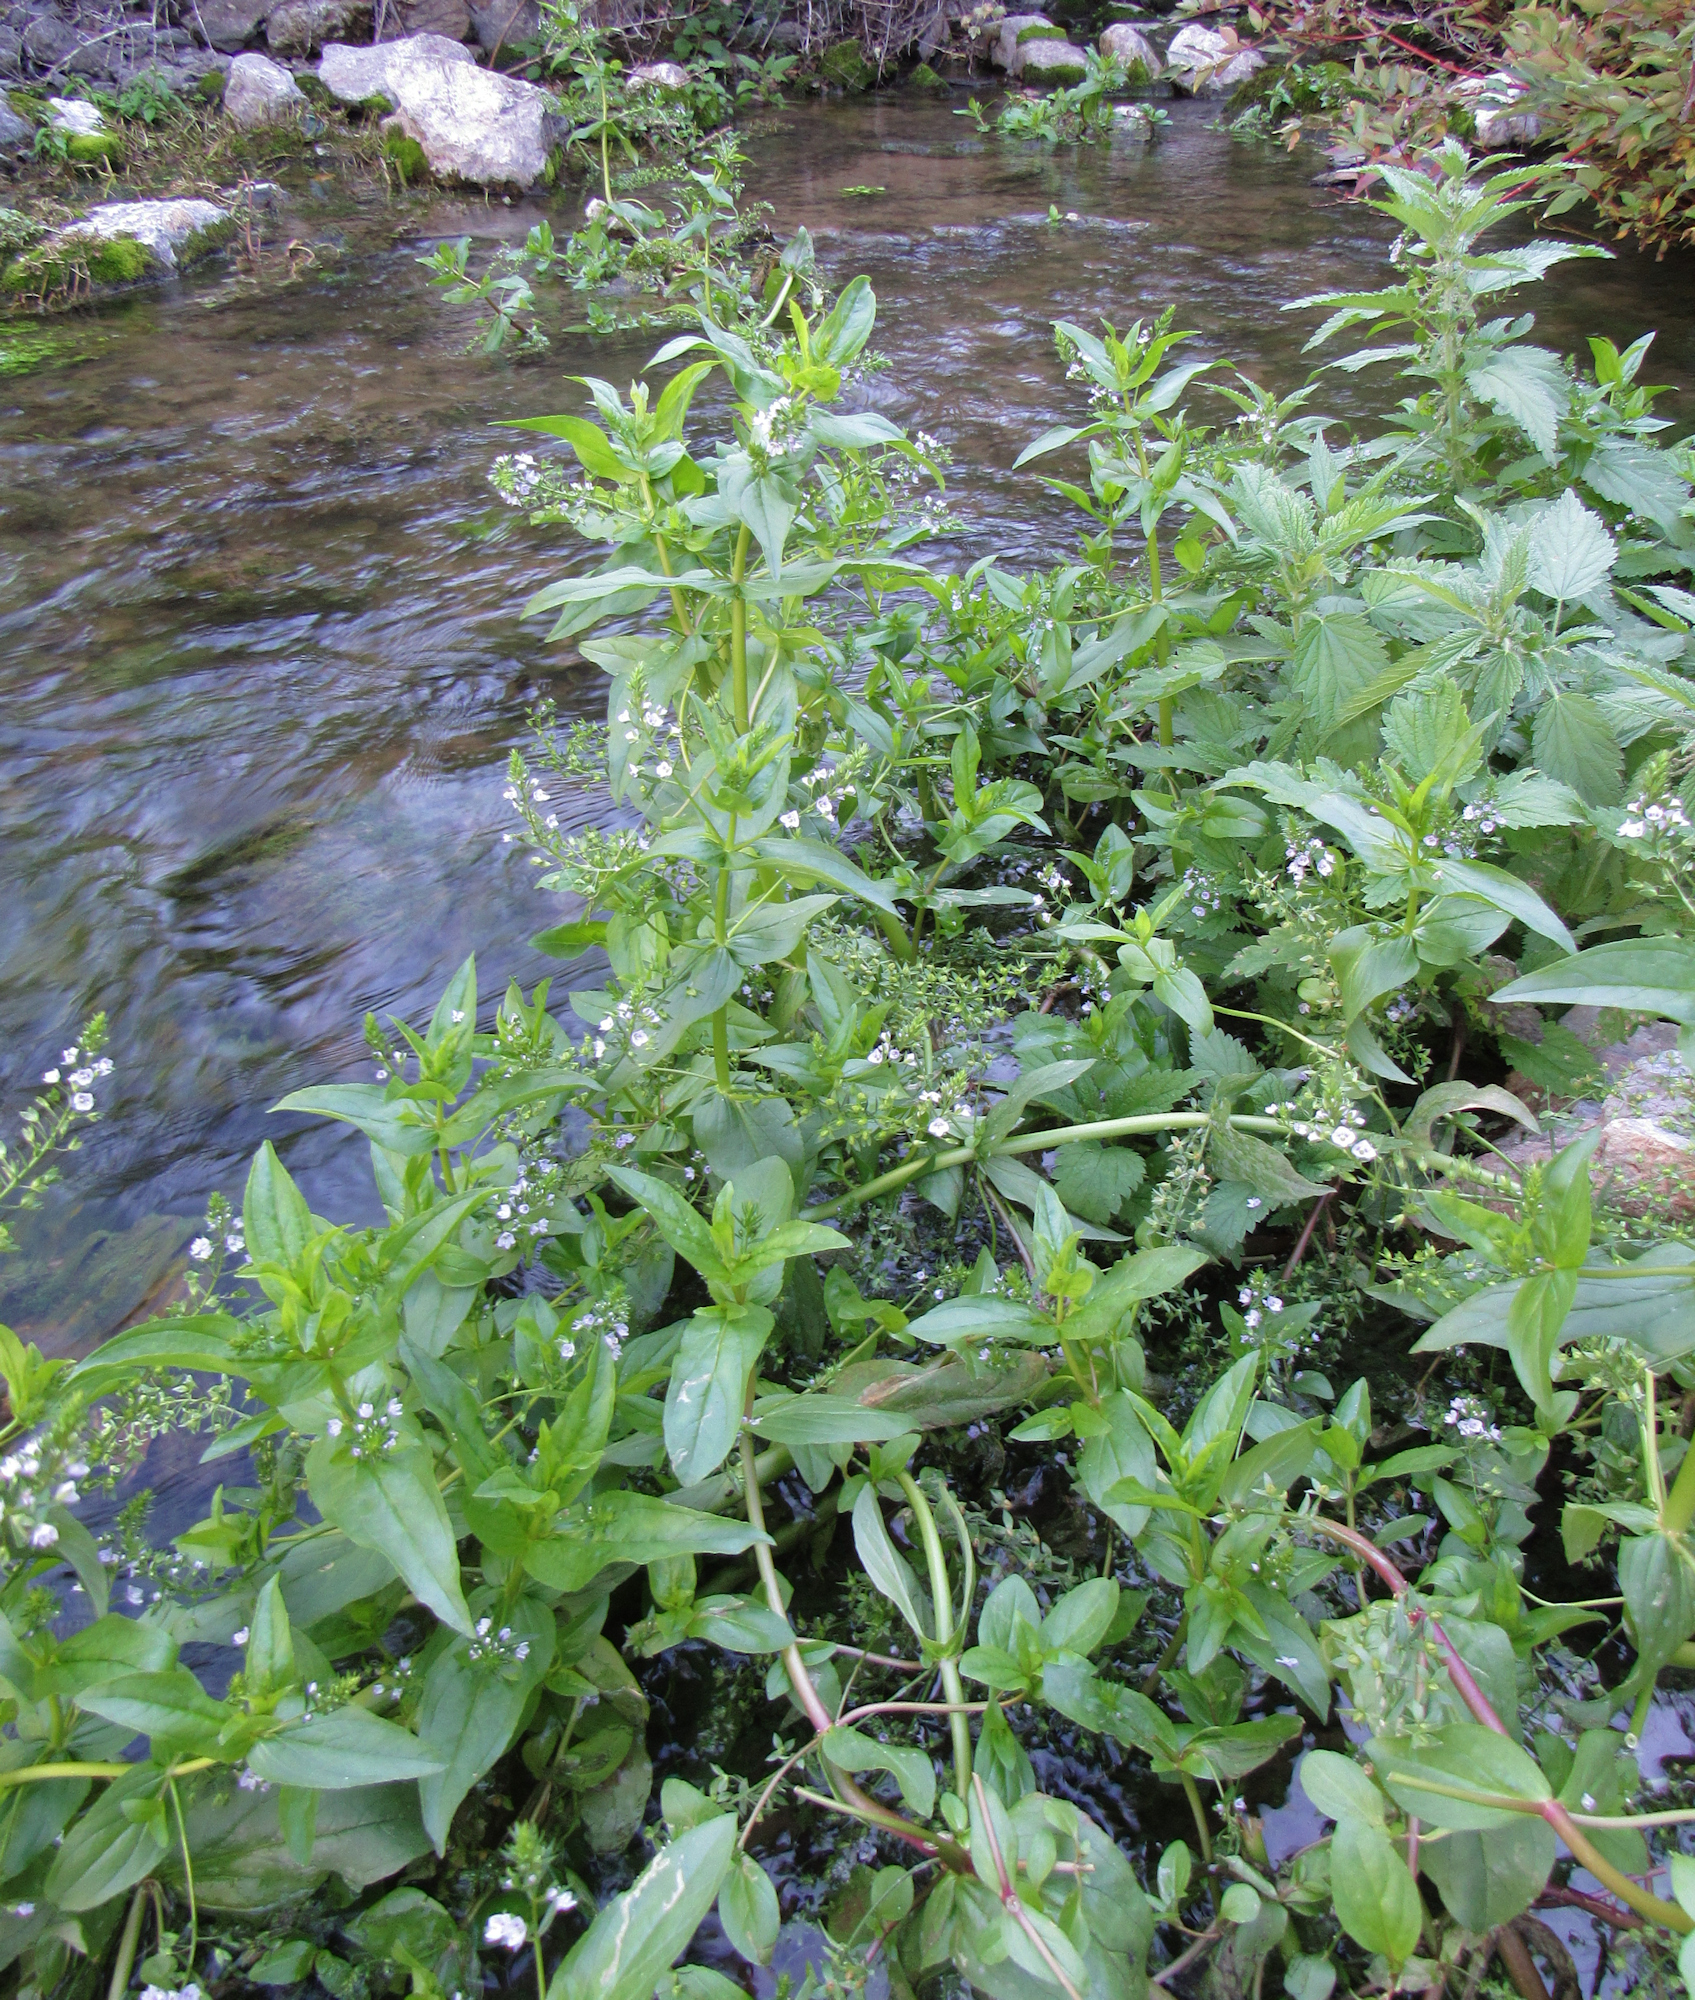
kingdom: Plantae
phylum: Tracheophyta
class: Magnoliopsida
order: Lamiales
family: Plantaginaceae
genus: Veronica
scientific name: Veronica anagallis-aquatica
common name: Water speedwell
